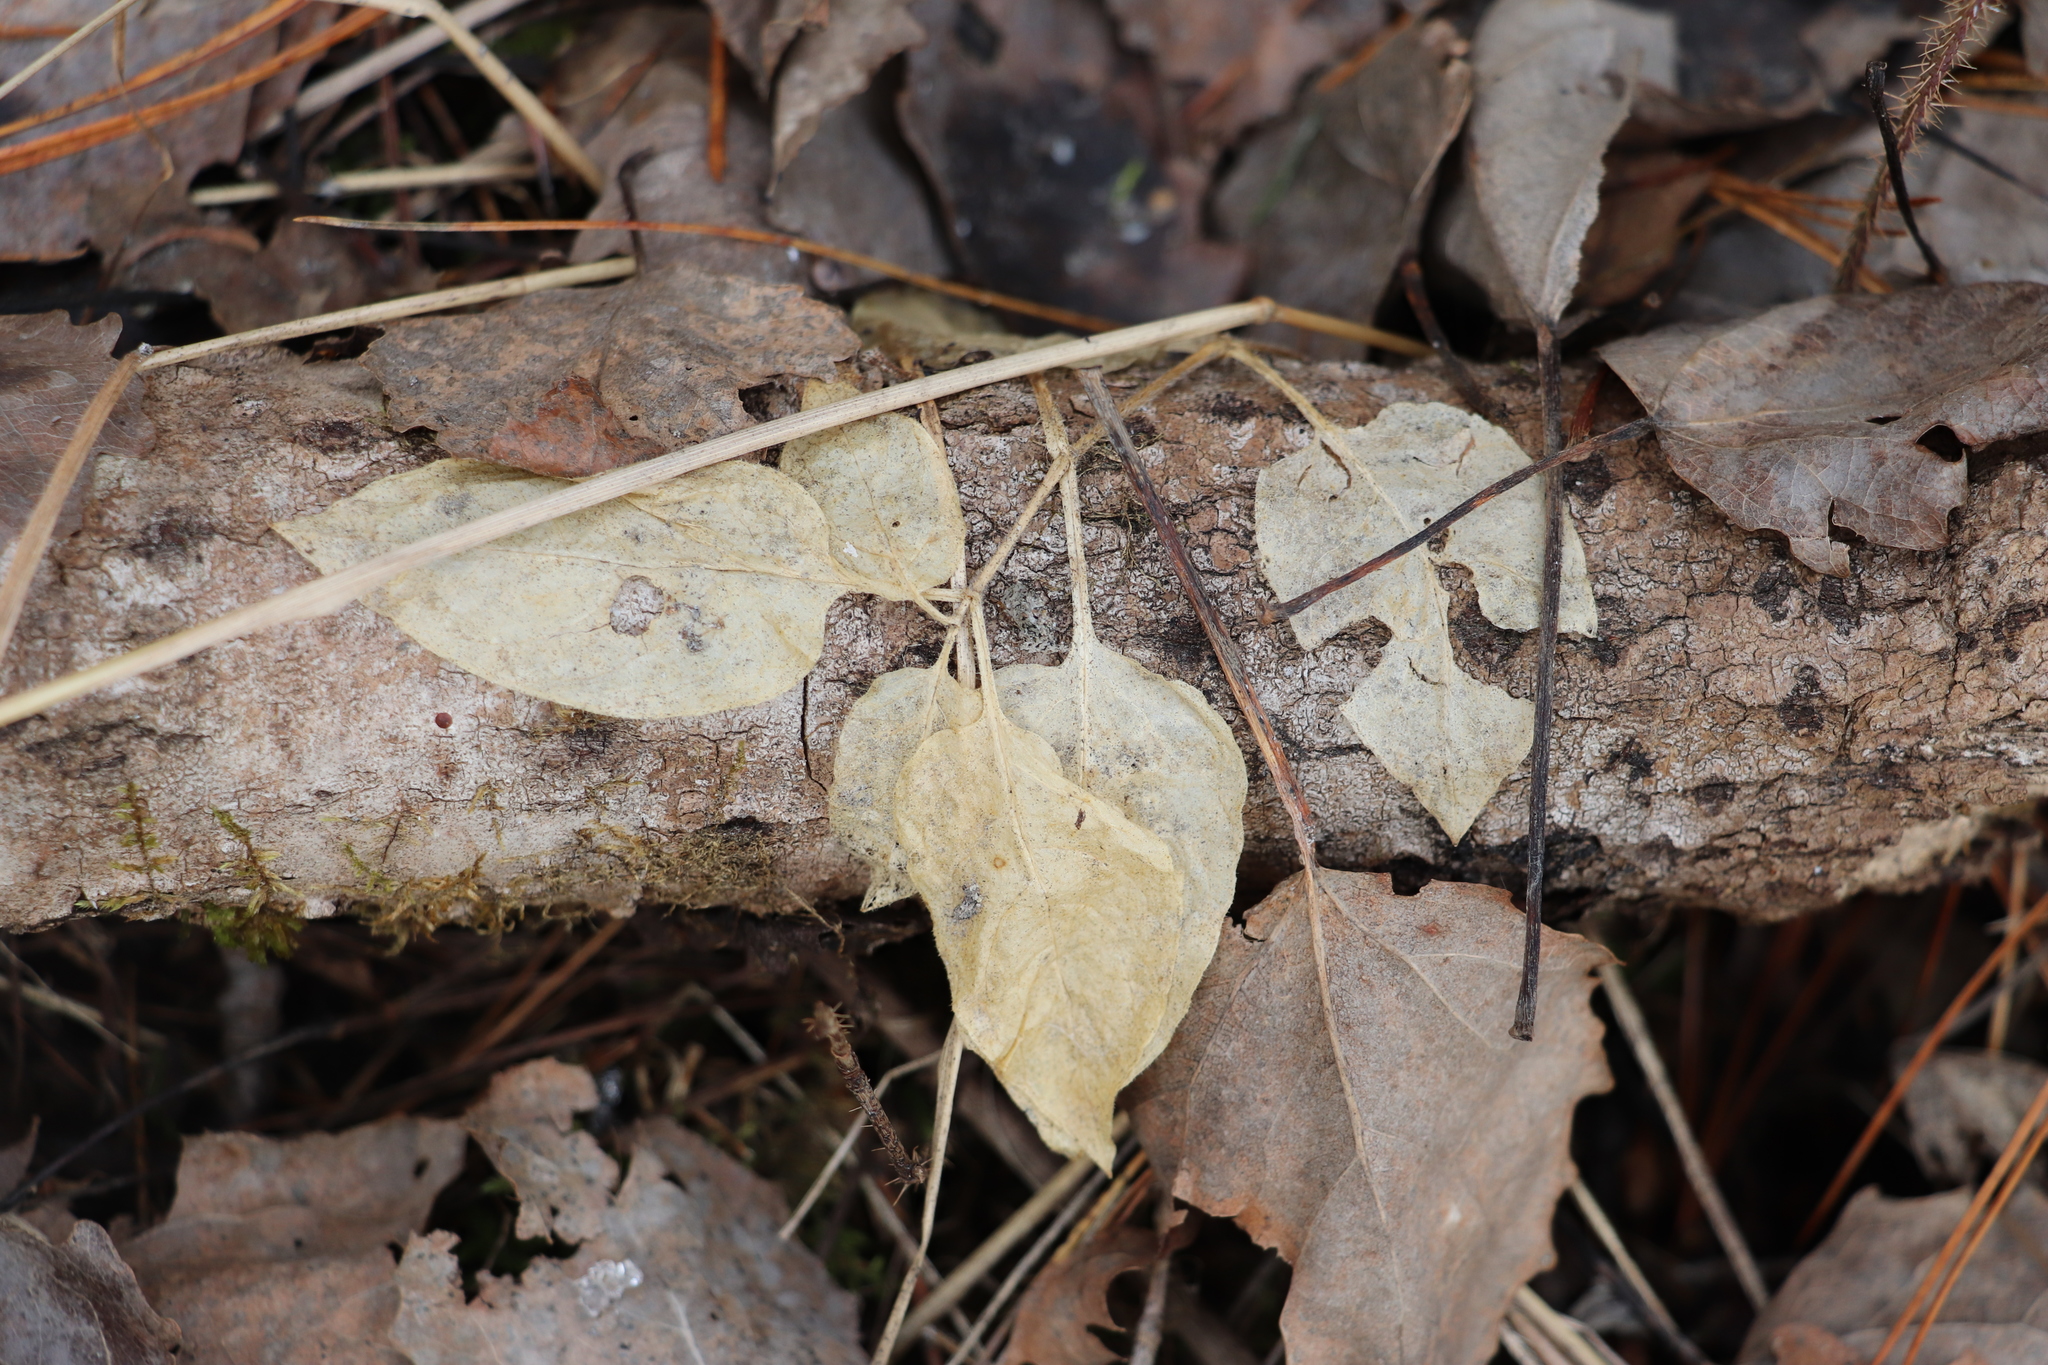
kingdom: Plantae
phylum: Tracheophyta
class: Magnoliopsida
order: Caryophyllales
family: Caryophyllaceae
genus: Stellaria
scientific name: Stellaria bungeana
